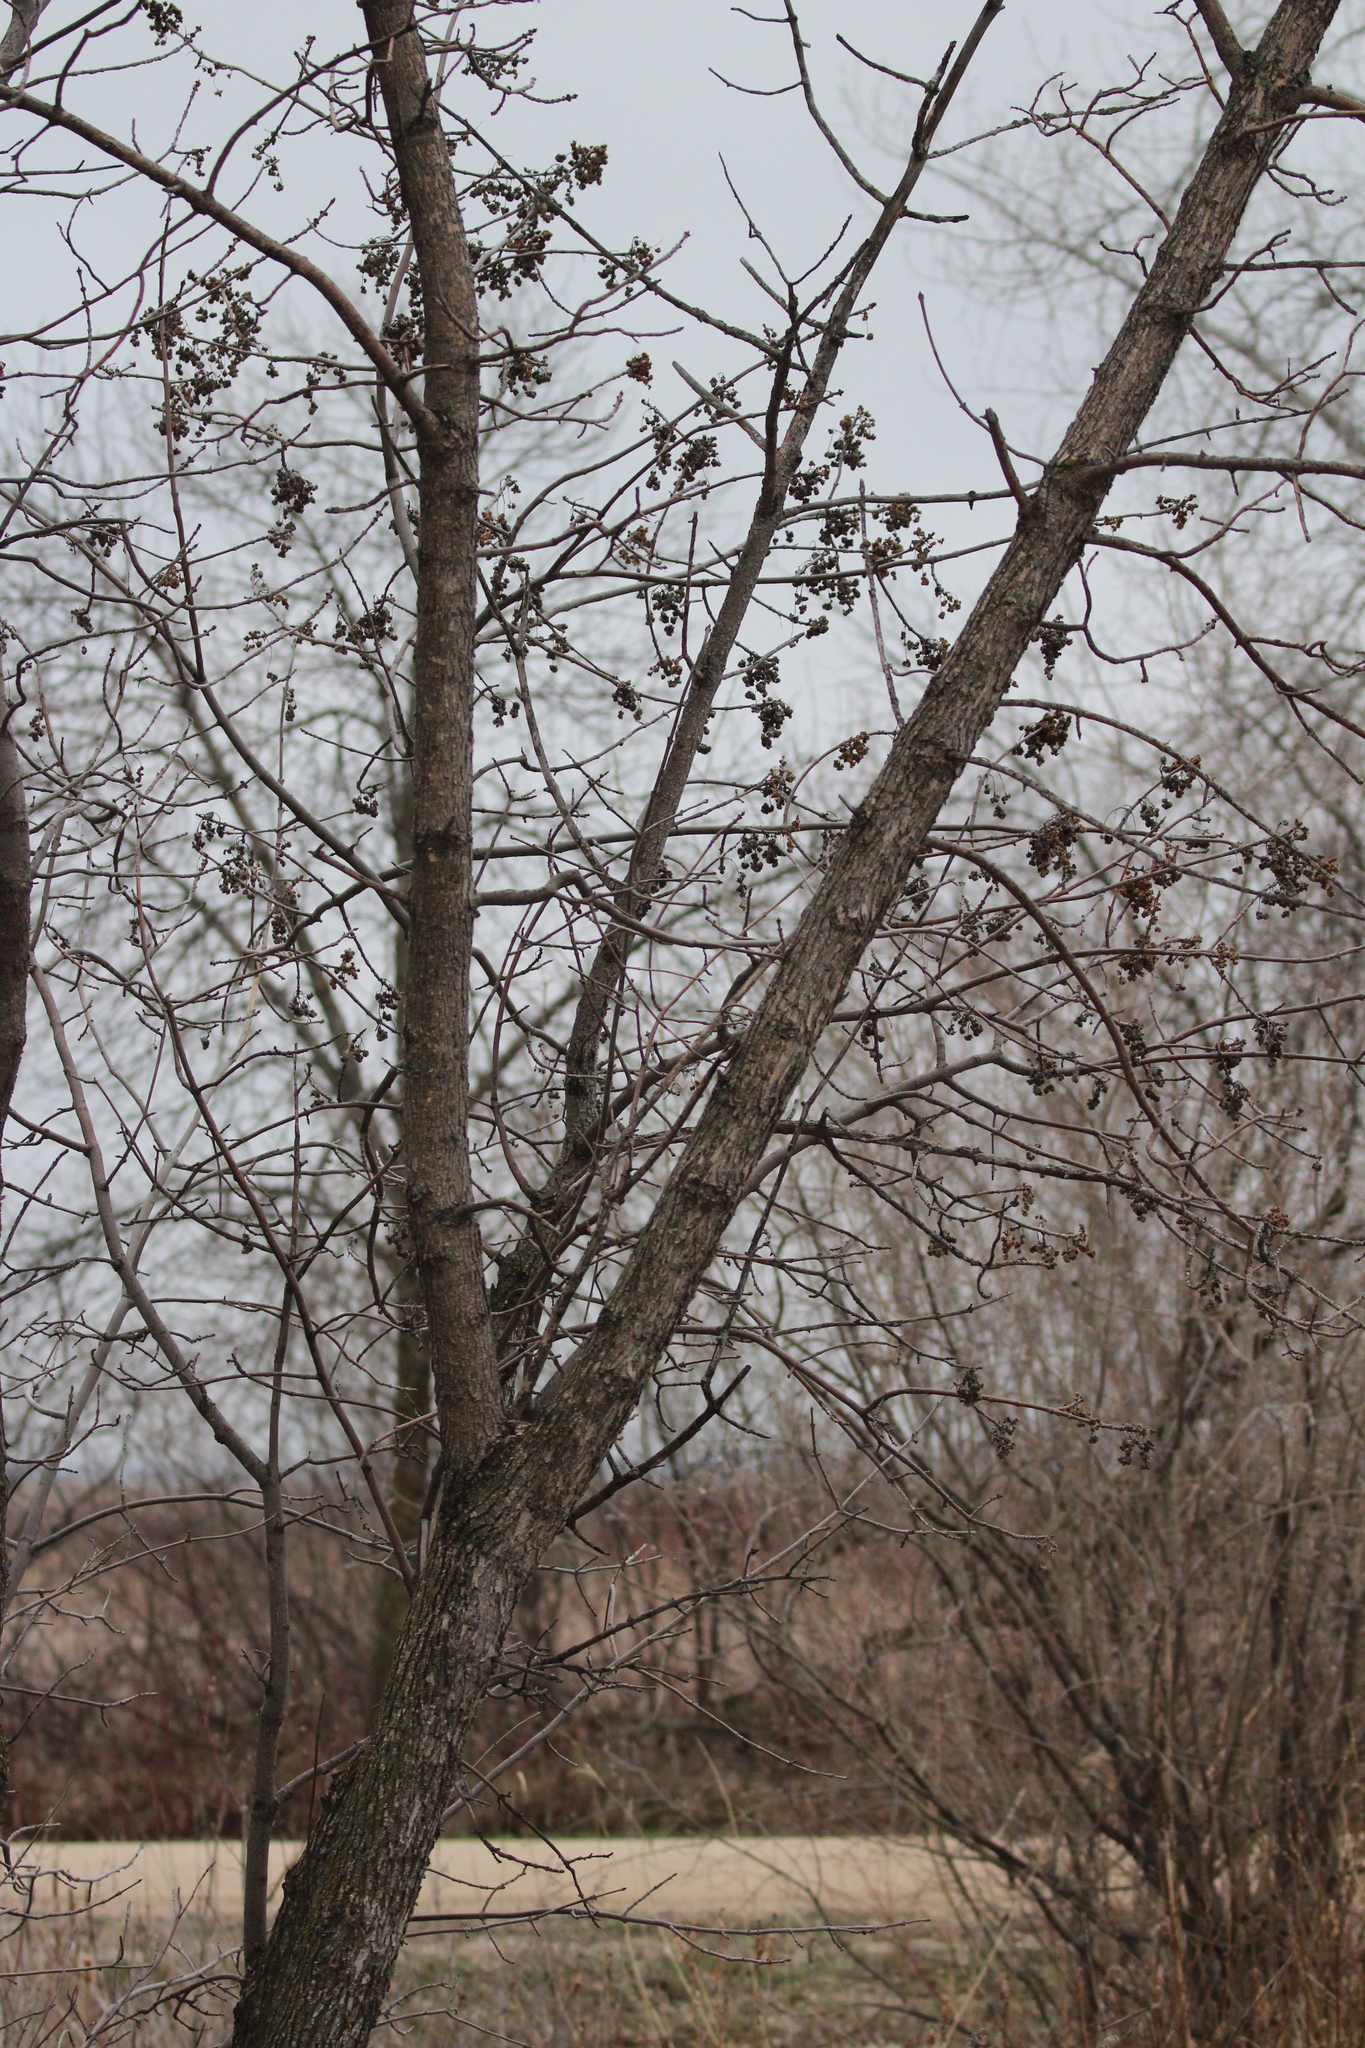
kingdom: Animalia
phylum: Arthropoda
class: Arachnida
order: Trombidiformes
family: Eriophyidae
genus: Aceria
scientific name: Aceria fraxiniflora
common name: Ash flower gall mite
